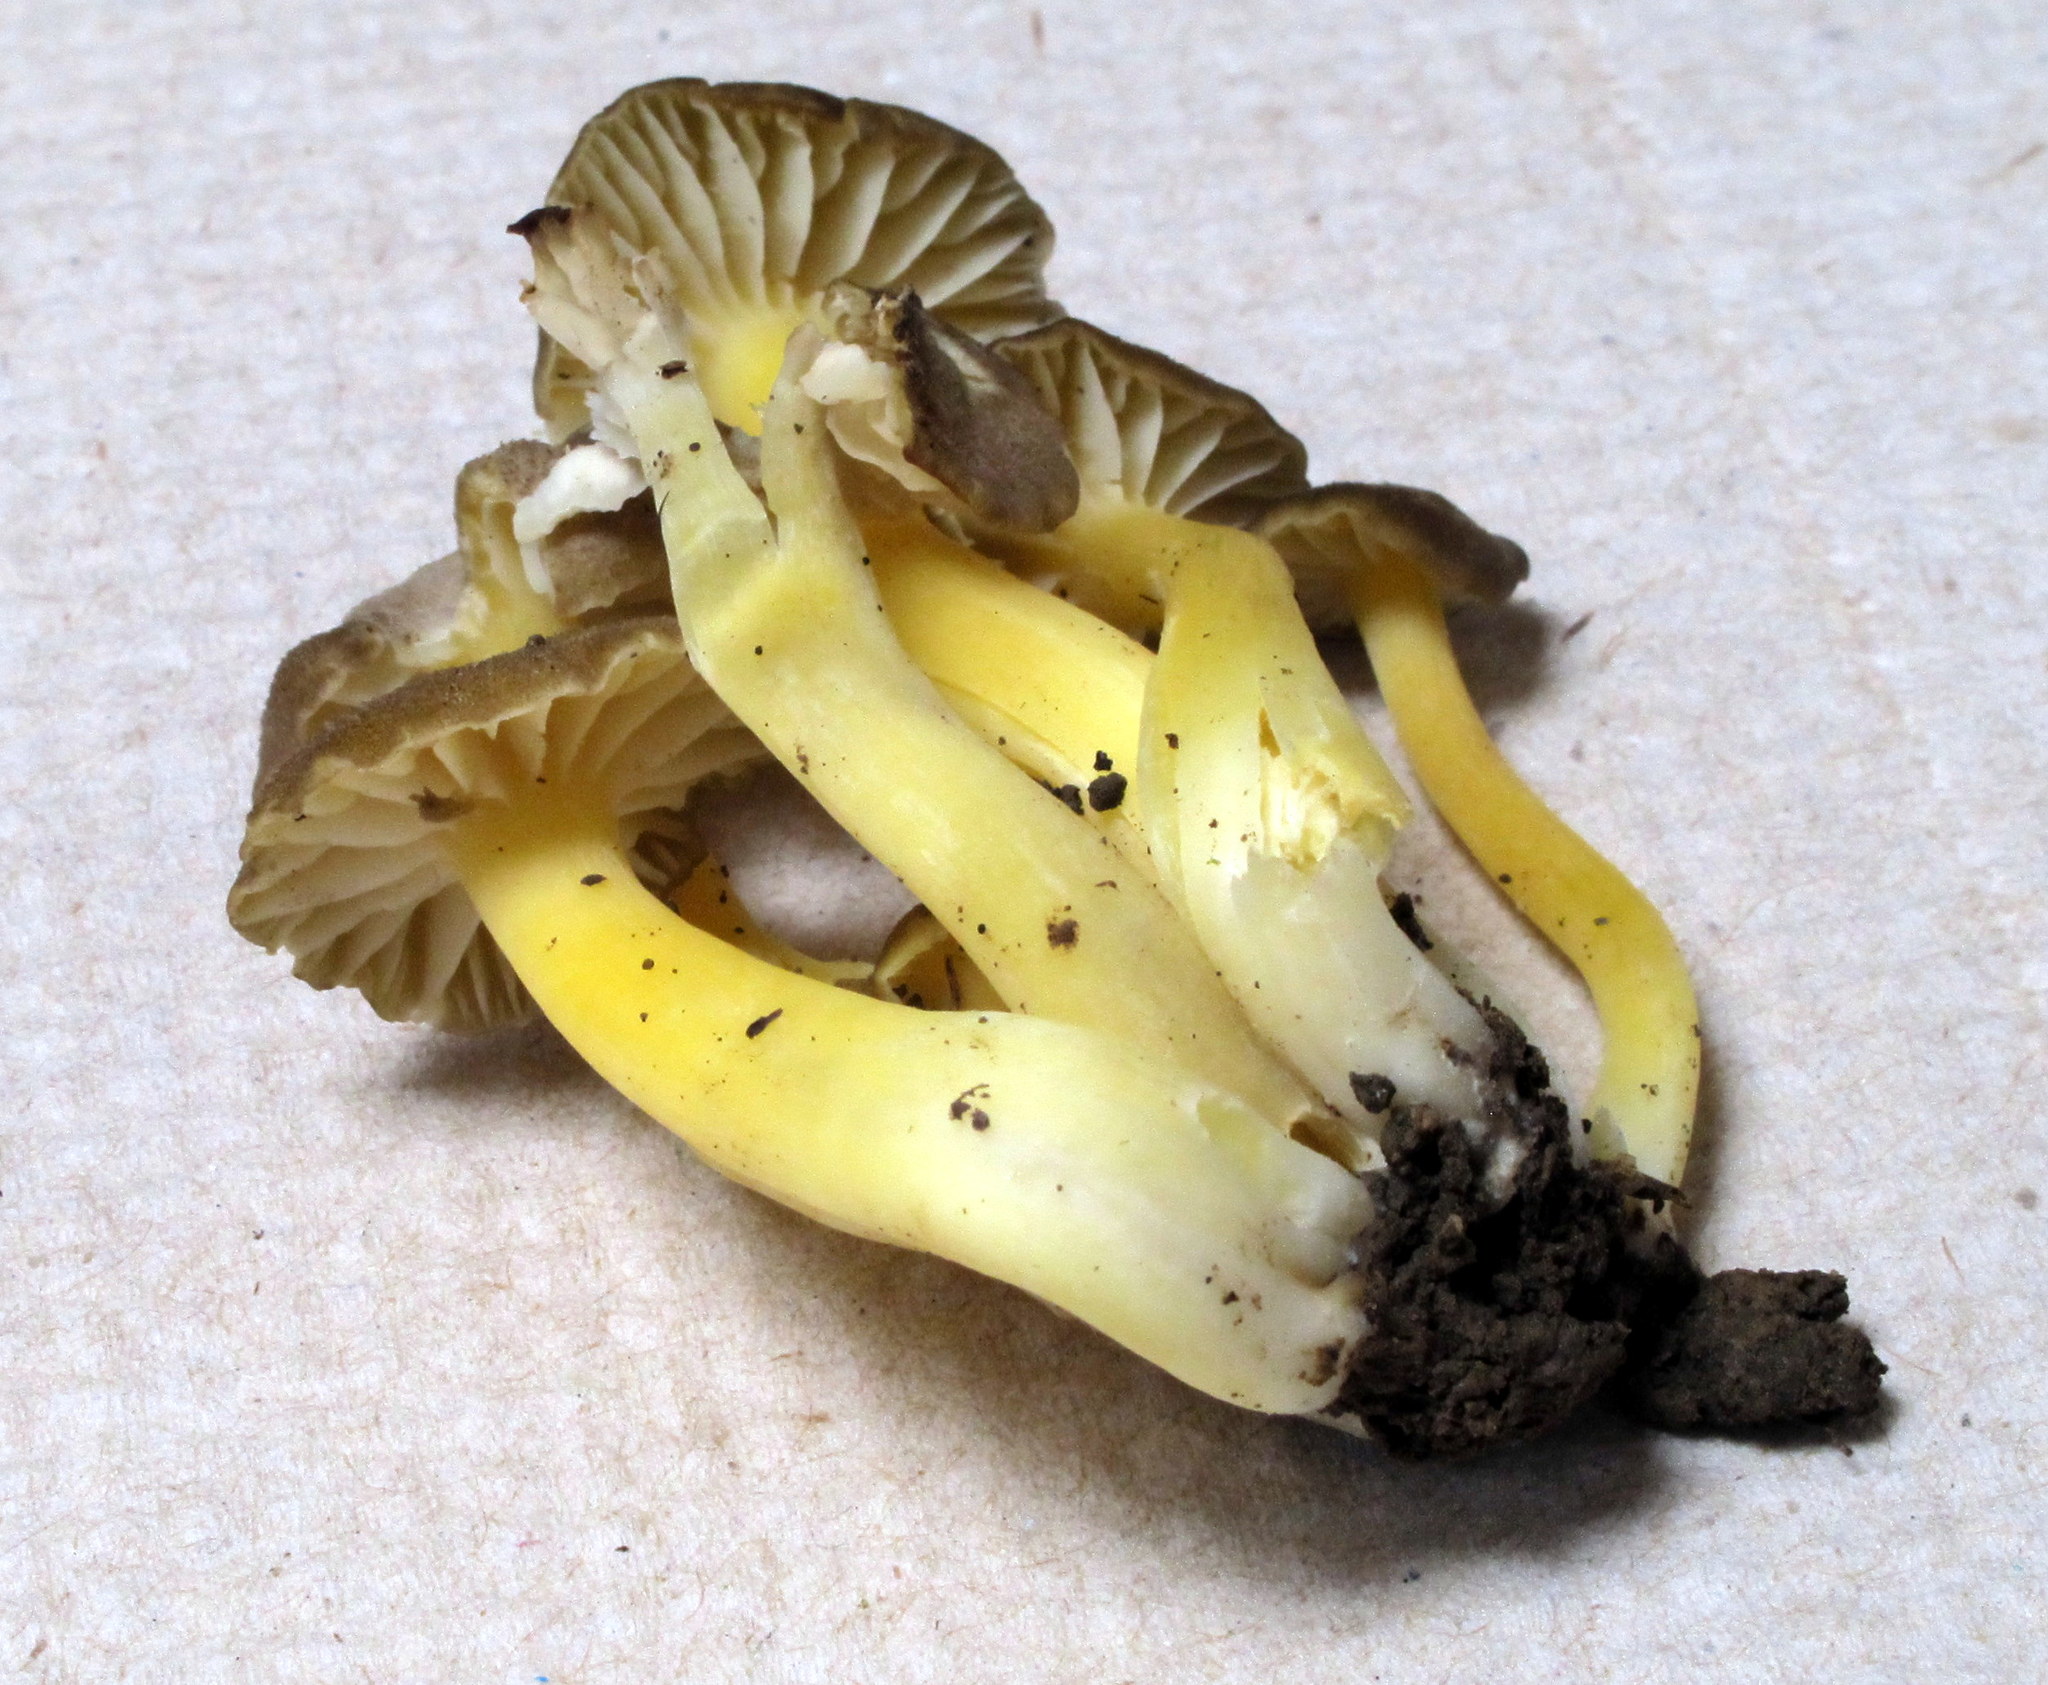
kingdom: Fungi
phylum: Basidiomycota
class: Agaricomycetes
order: Agaricales
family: Hygrophoraceae
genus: Hygrocybe
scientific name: Hygrocybe caespitosa
